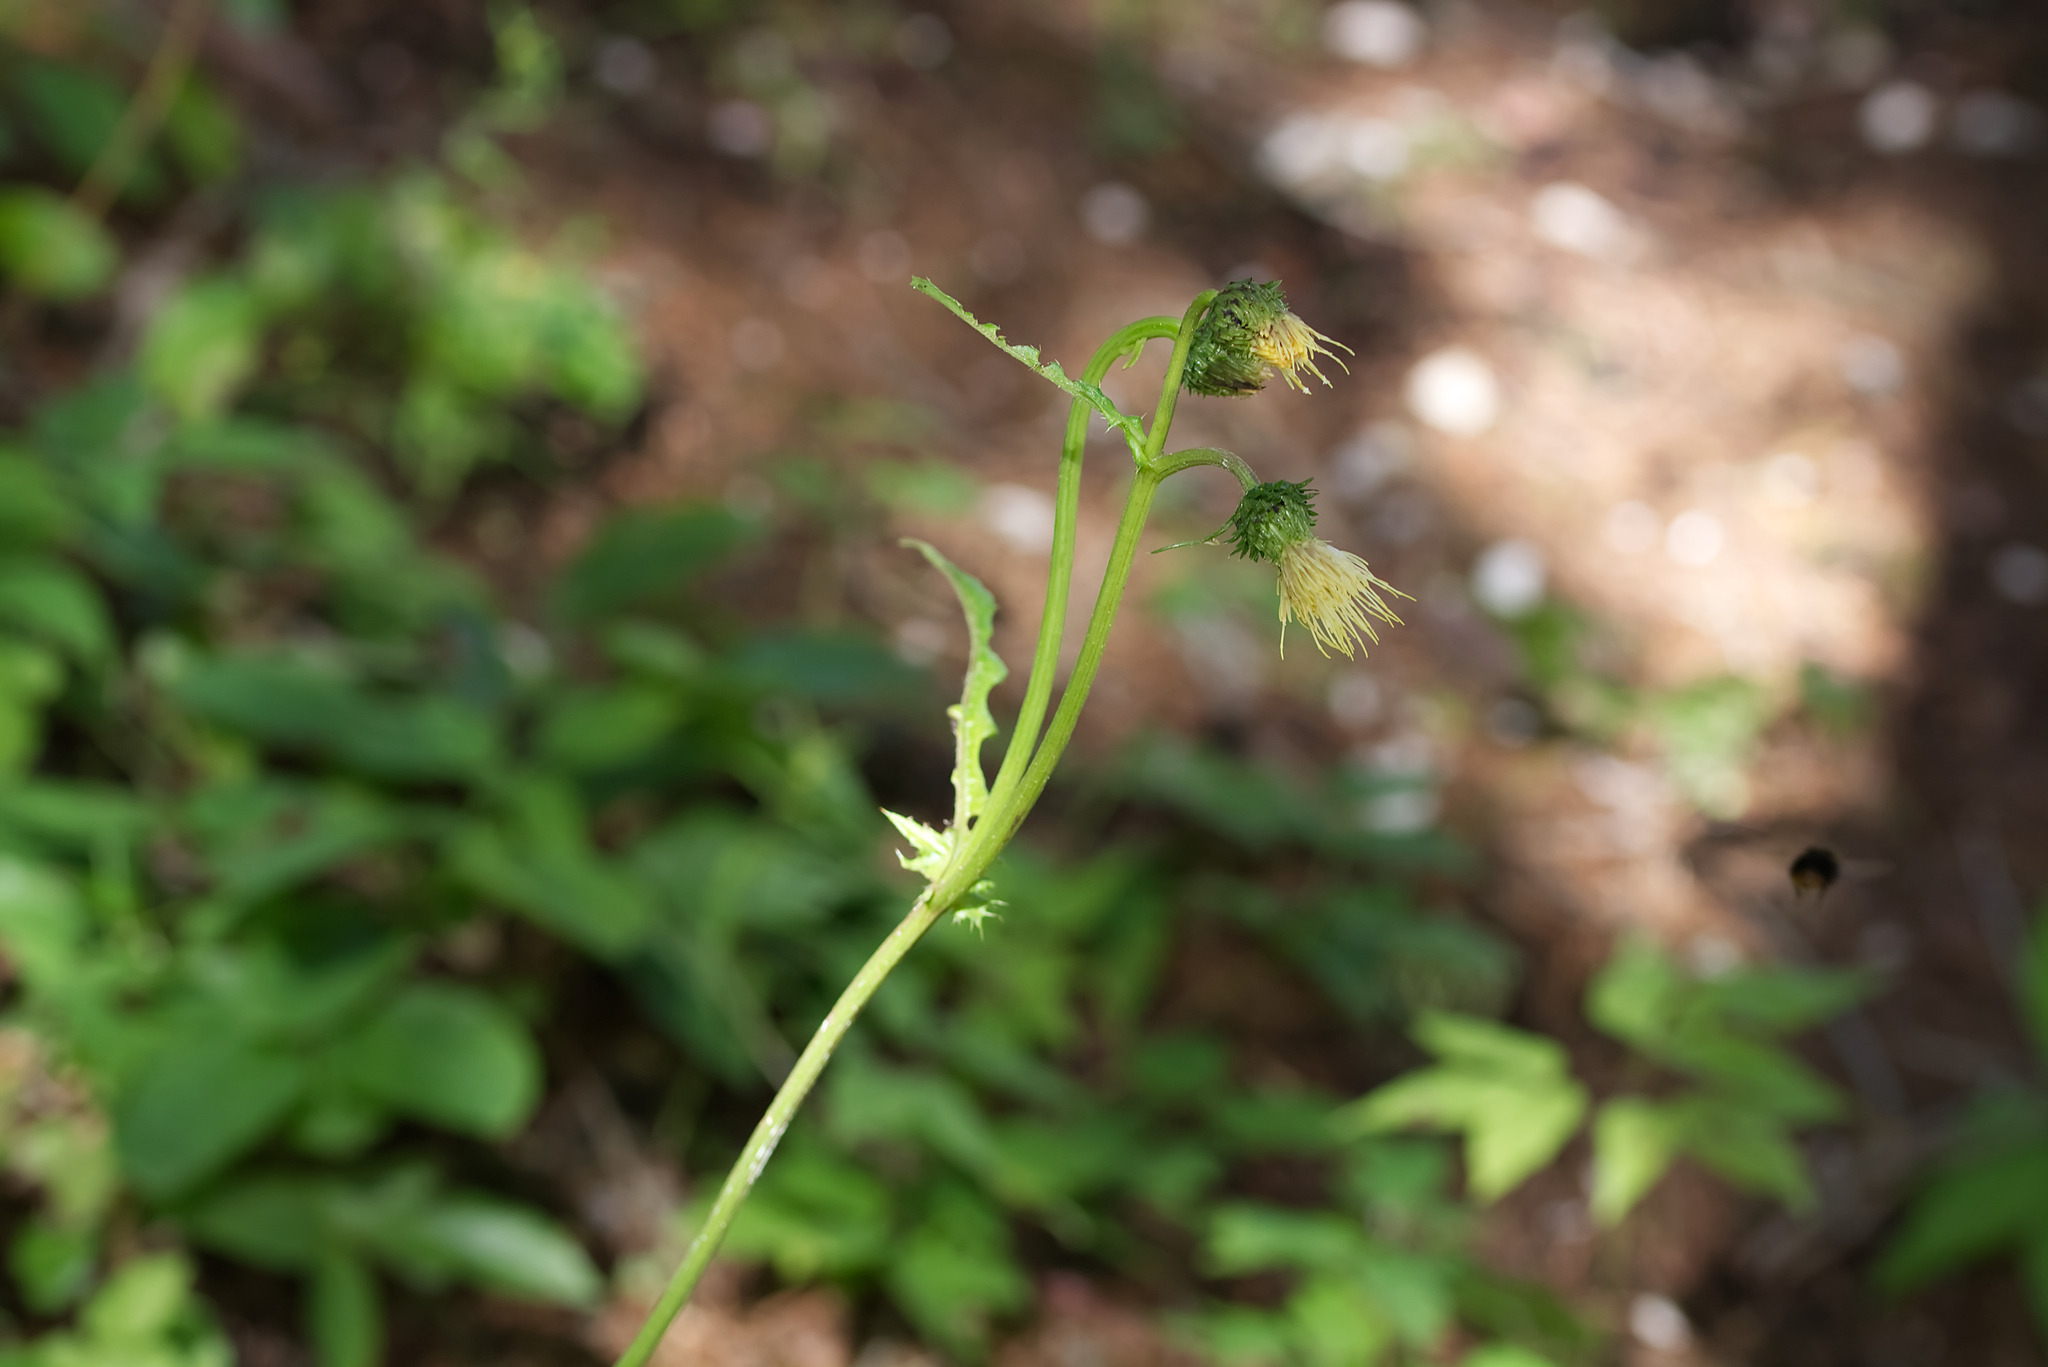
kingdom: Plantae
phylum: Tracheophyta
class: Magnoliopsida
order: Asterales
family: Asteraceae
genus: Cirsium
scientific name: Cirsium erisithales
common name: Yellow thistle
